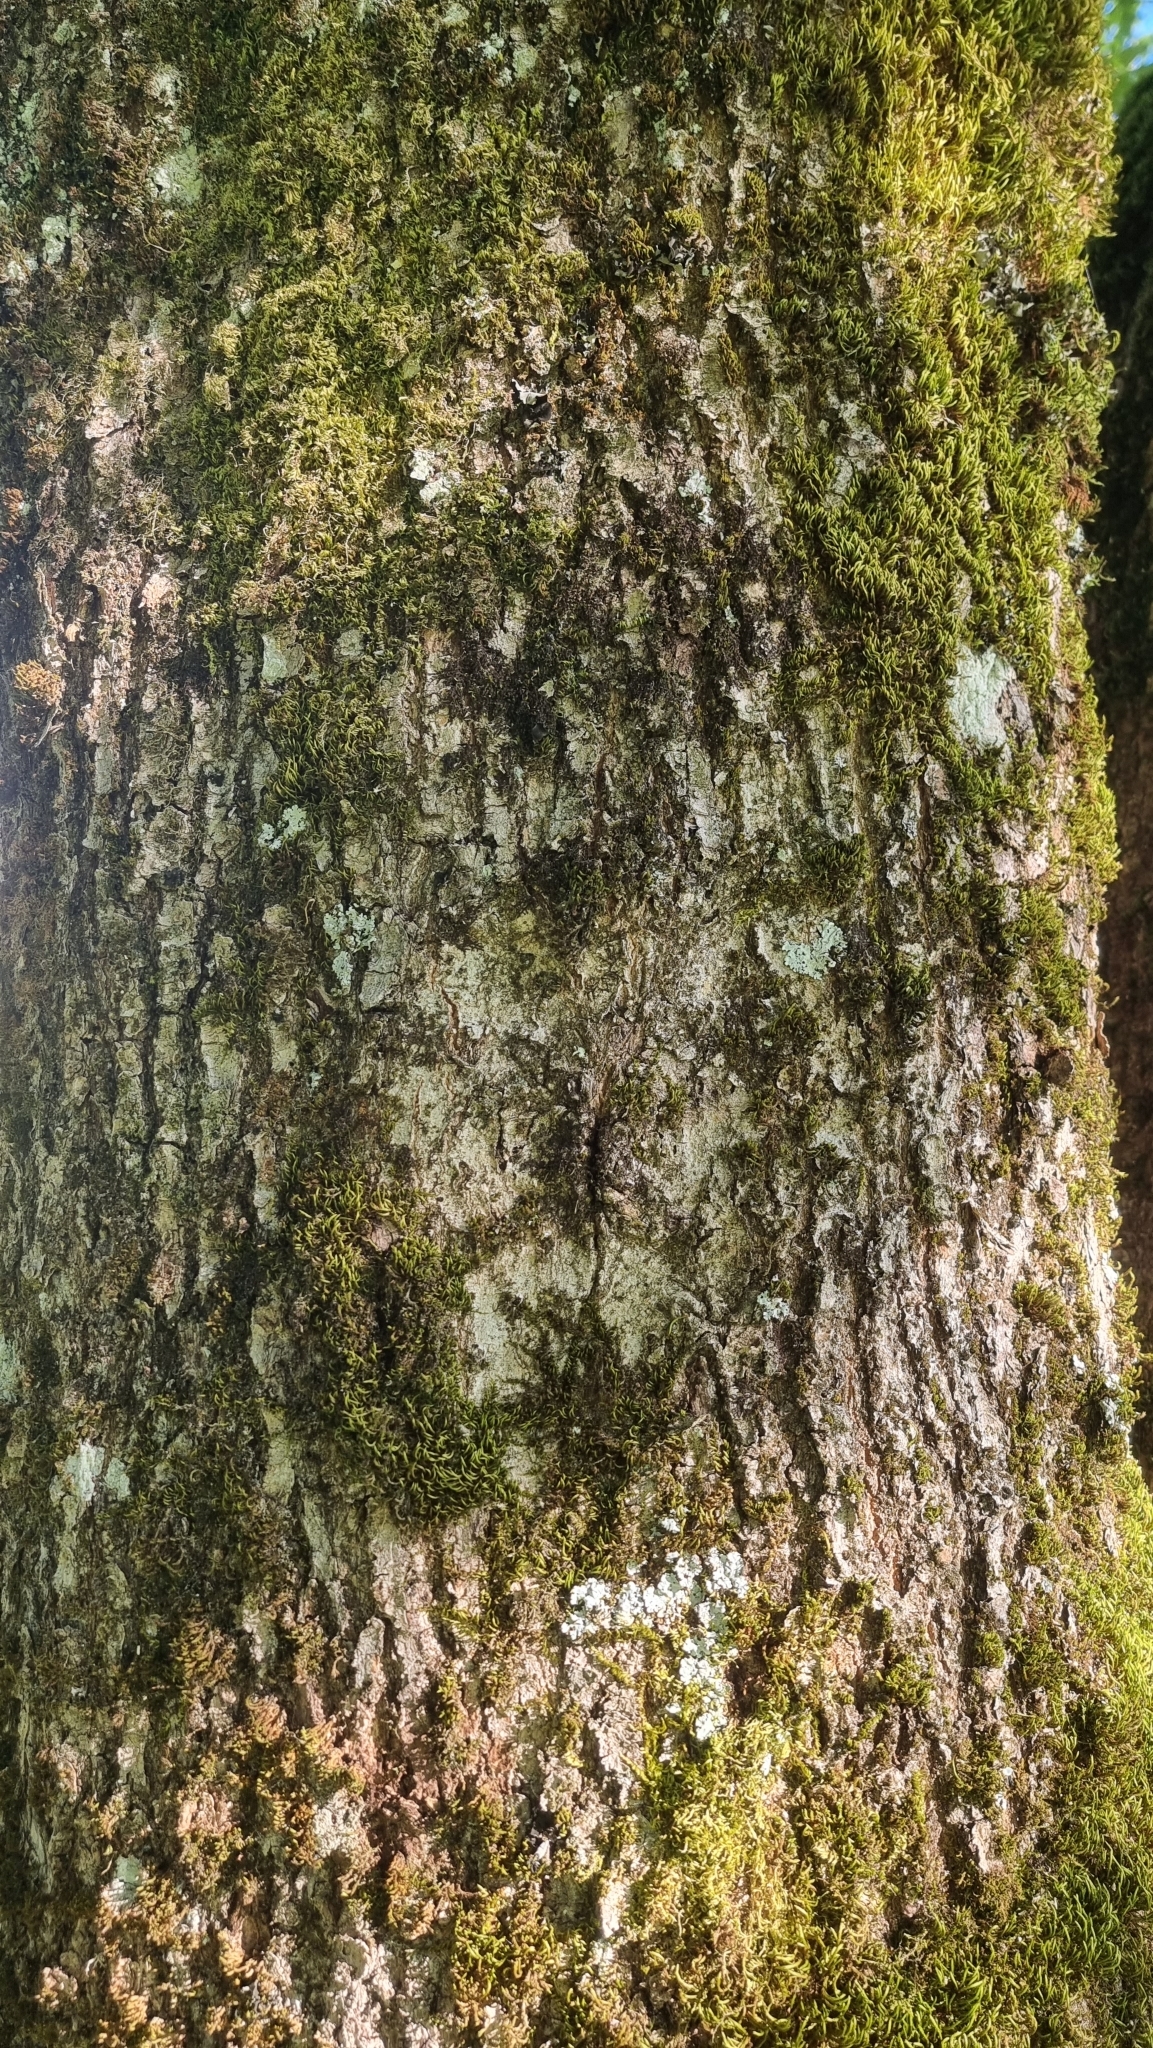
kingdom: Plantae
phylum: Tracheophyta
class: Magnoliopsida
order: Lamiales
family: Oleaceae
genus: Fraxinus
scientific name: Fraxinus excelsior
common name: European ash
